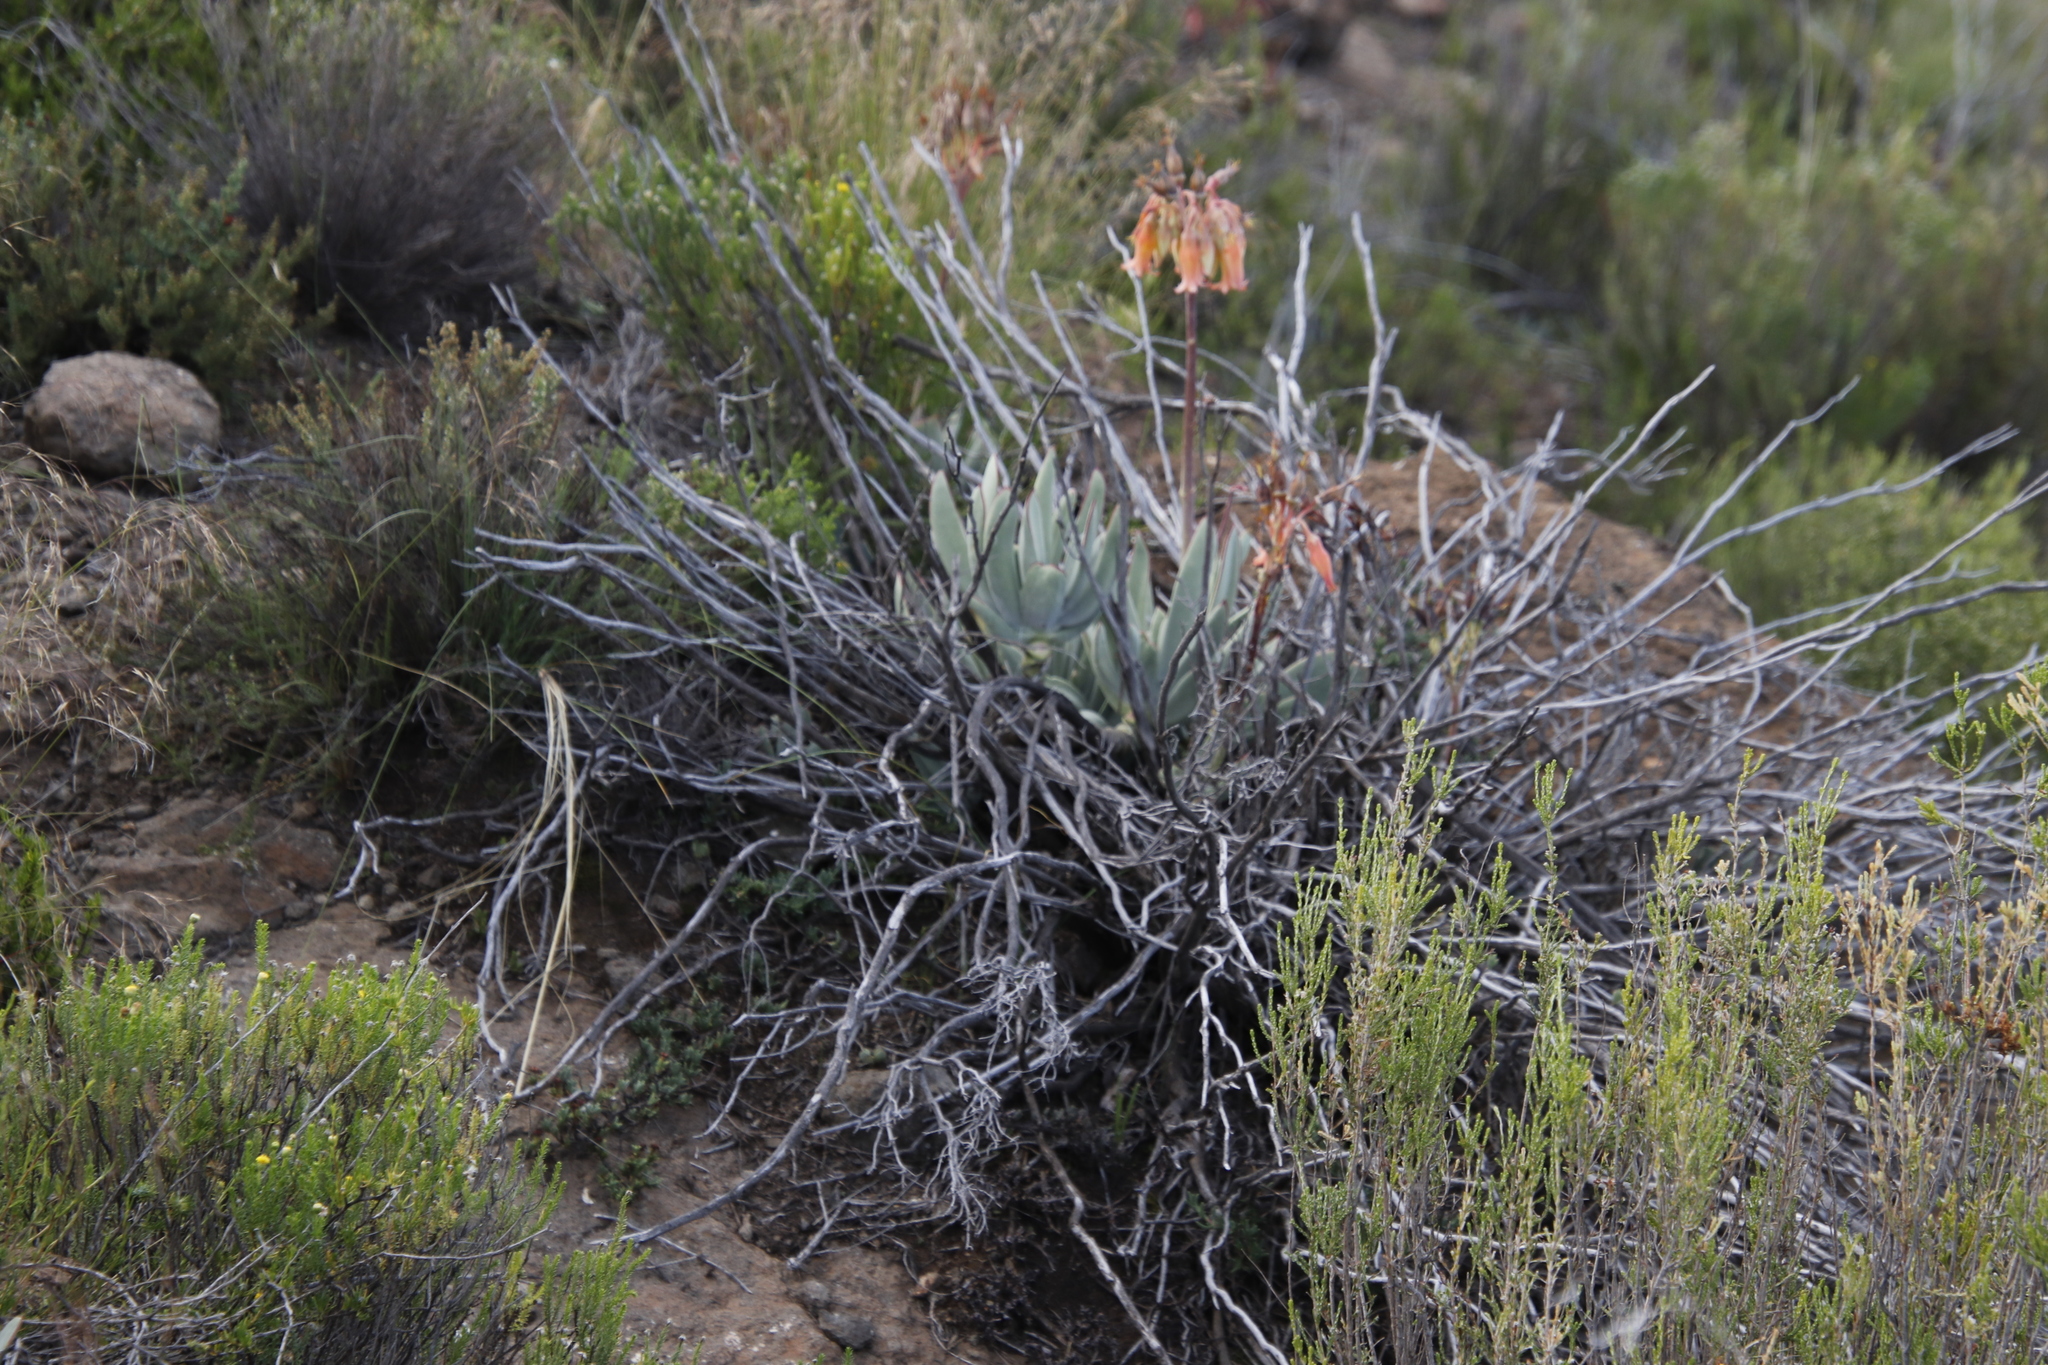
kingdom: Plantae
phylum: Tracheophyta
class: Magnoliopsida
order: Saxifragales
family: Crassulaceae
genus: Cotyledon
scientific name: Cotyledon orbiculata
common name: Pig's ear
